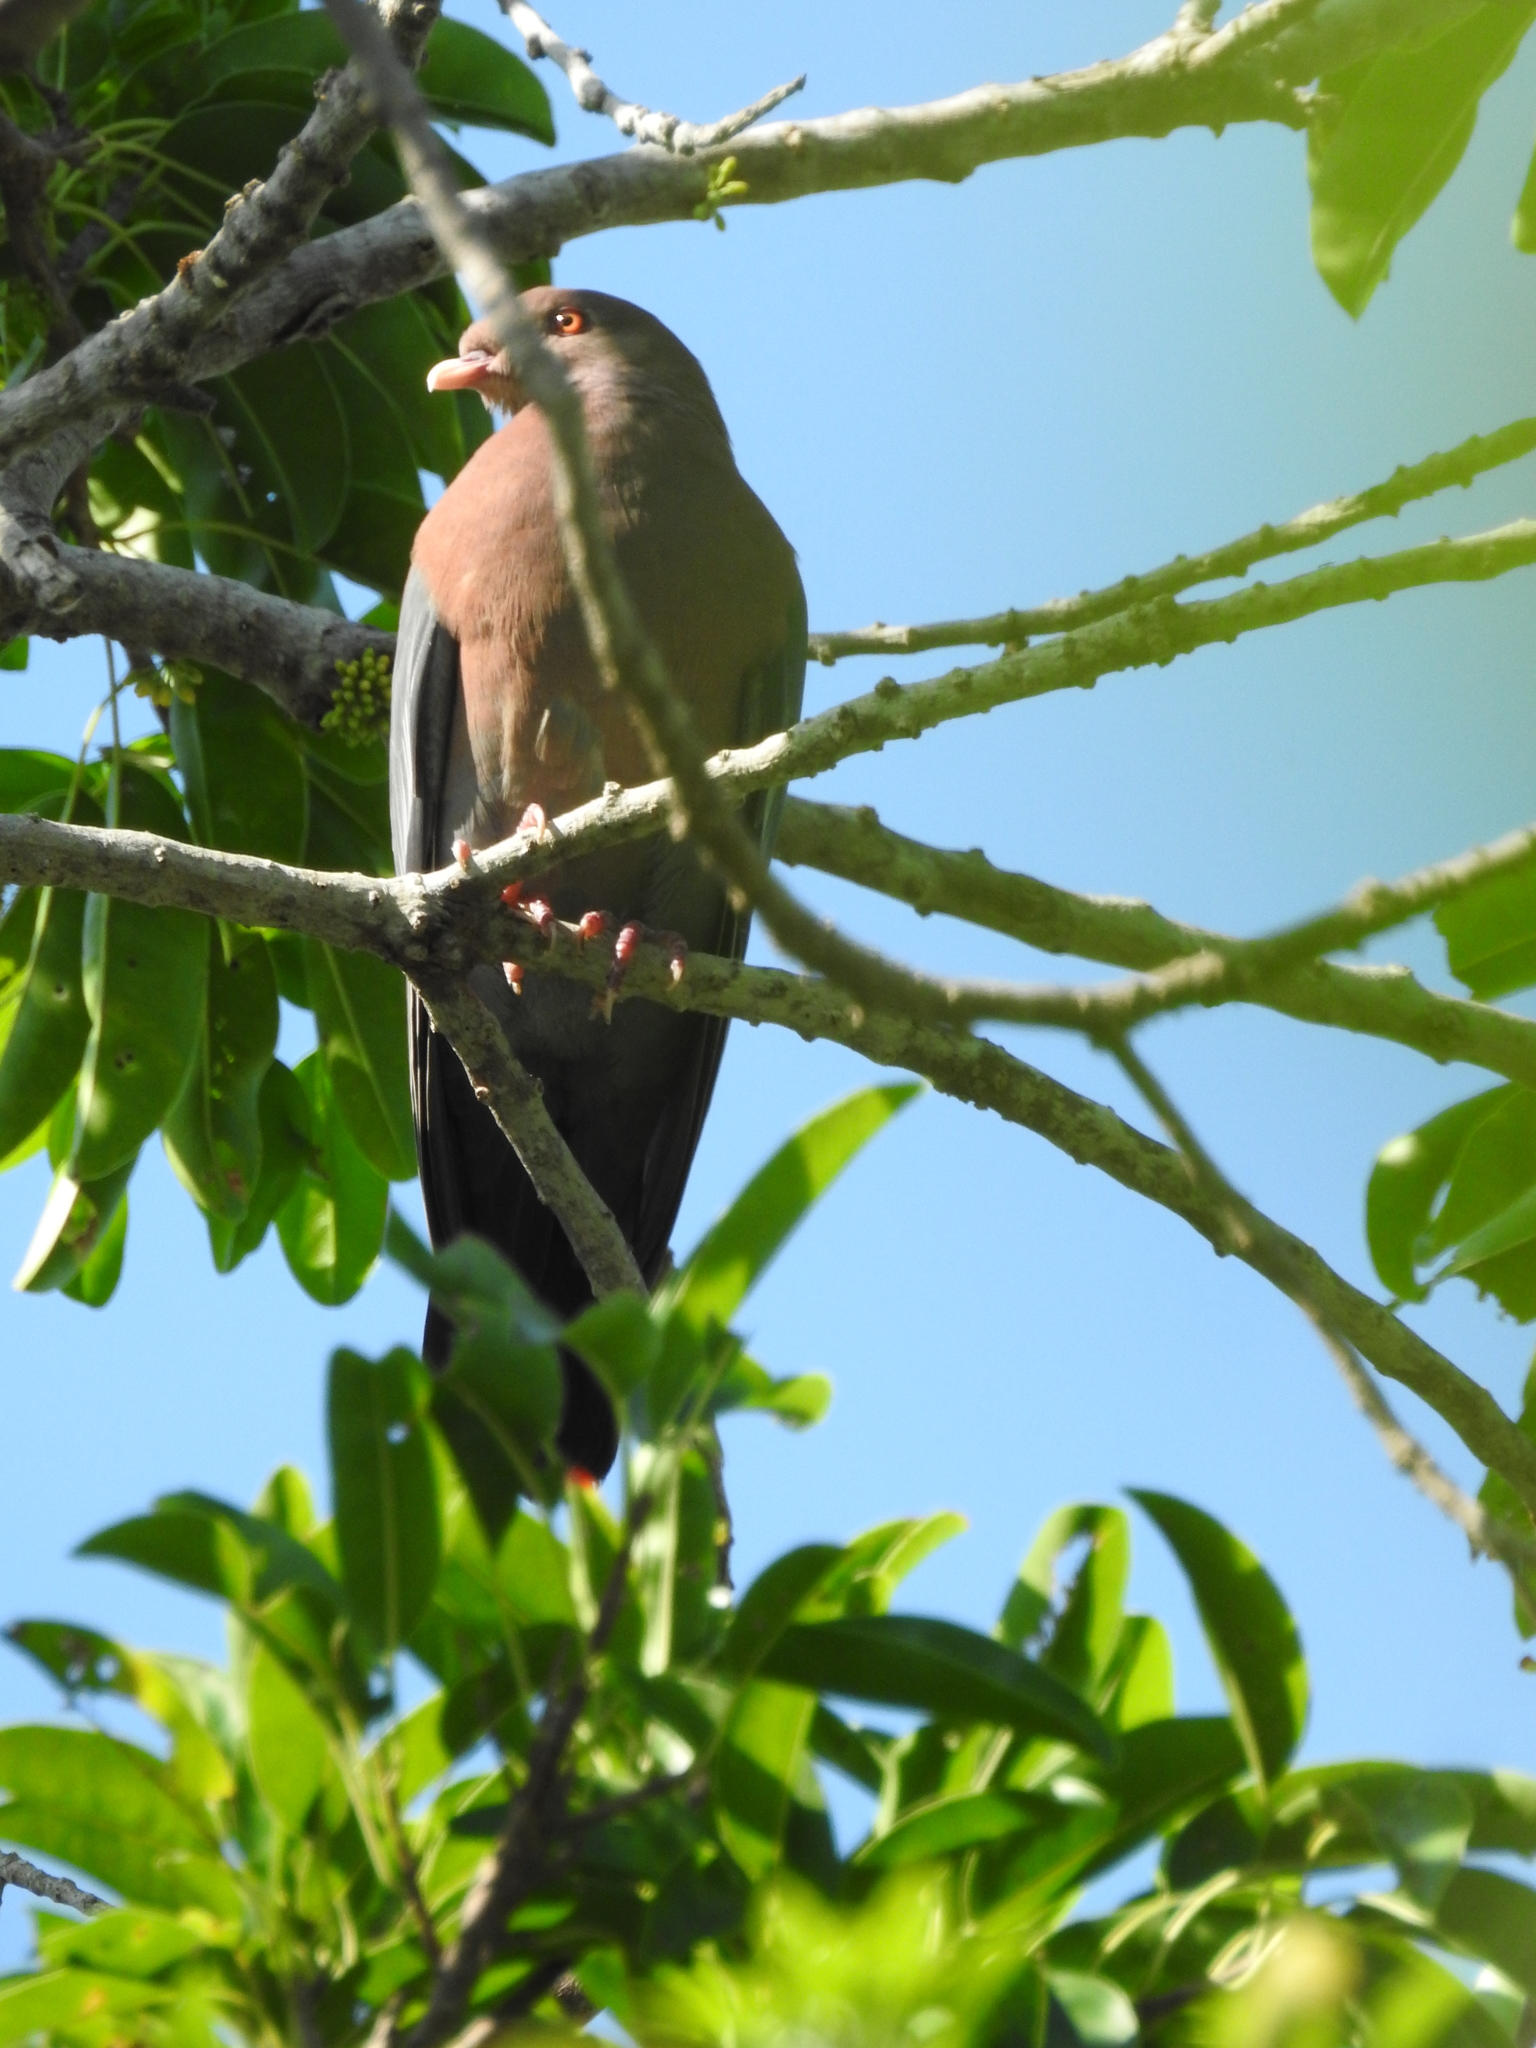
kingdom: Animalia
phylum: Chordata
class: Aves
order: Columbiformes
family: Columbidae
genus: Patagioenas
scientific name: Patagioenas flavirostris
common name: Red-billed pigeon
